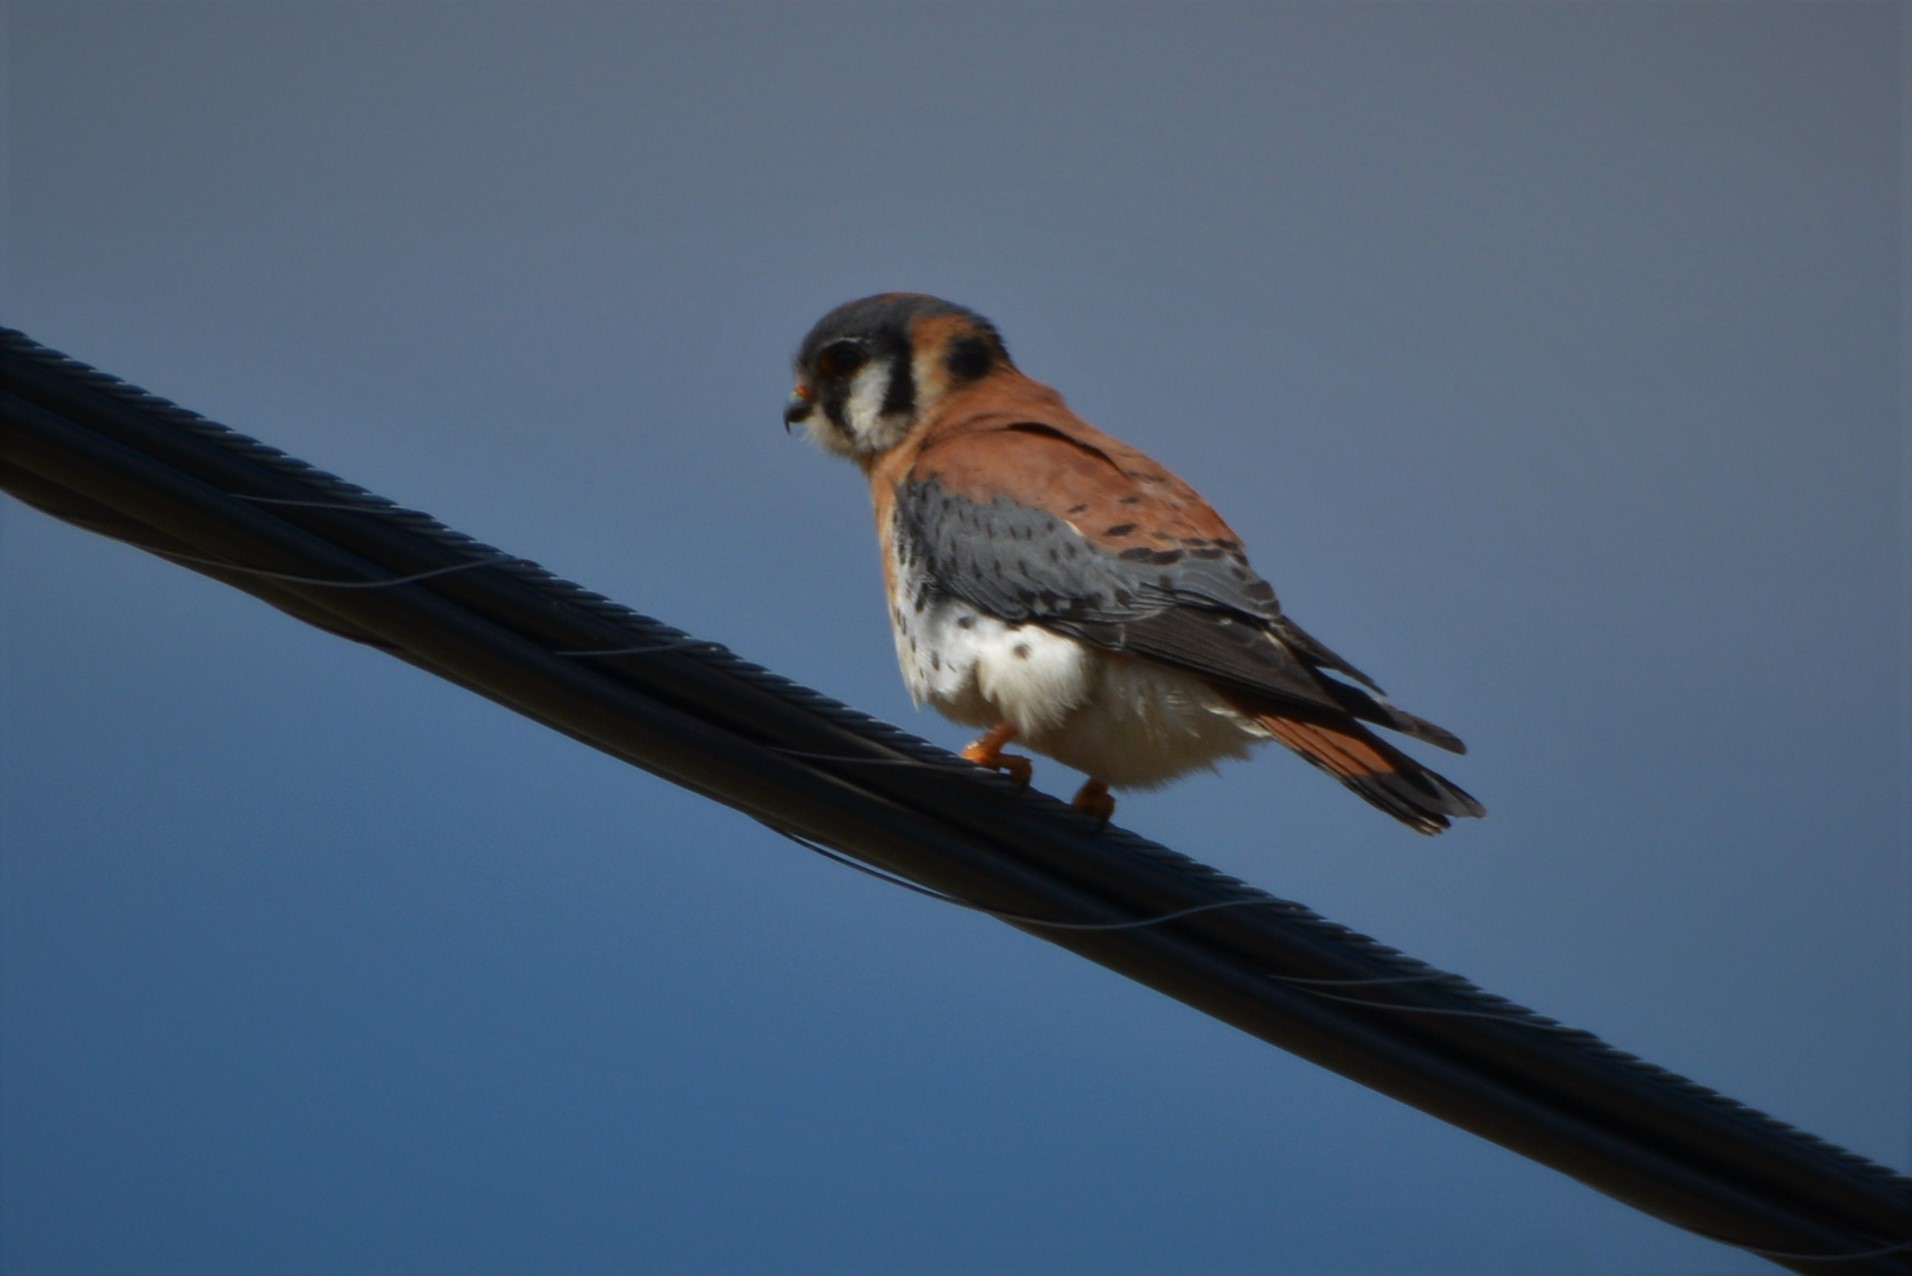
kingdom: Animalia
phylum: Chordata
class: Aves
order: Falconiformes
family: Falconidae
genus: Falco
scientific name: Falco sparverius
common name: American kestrel
